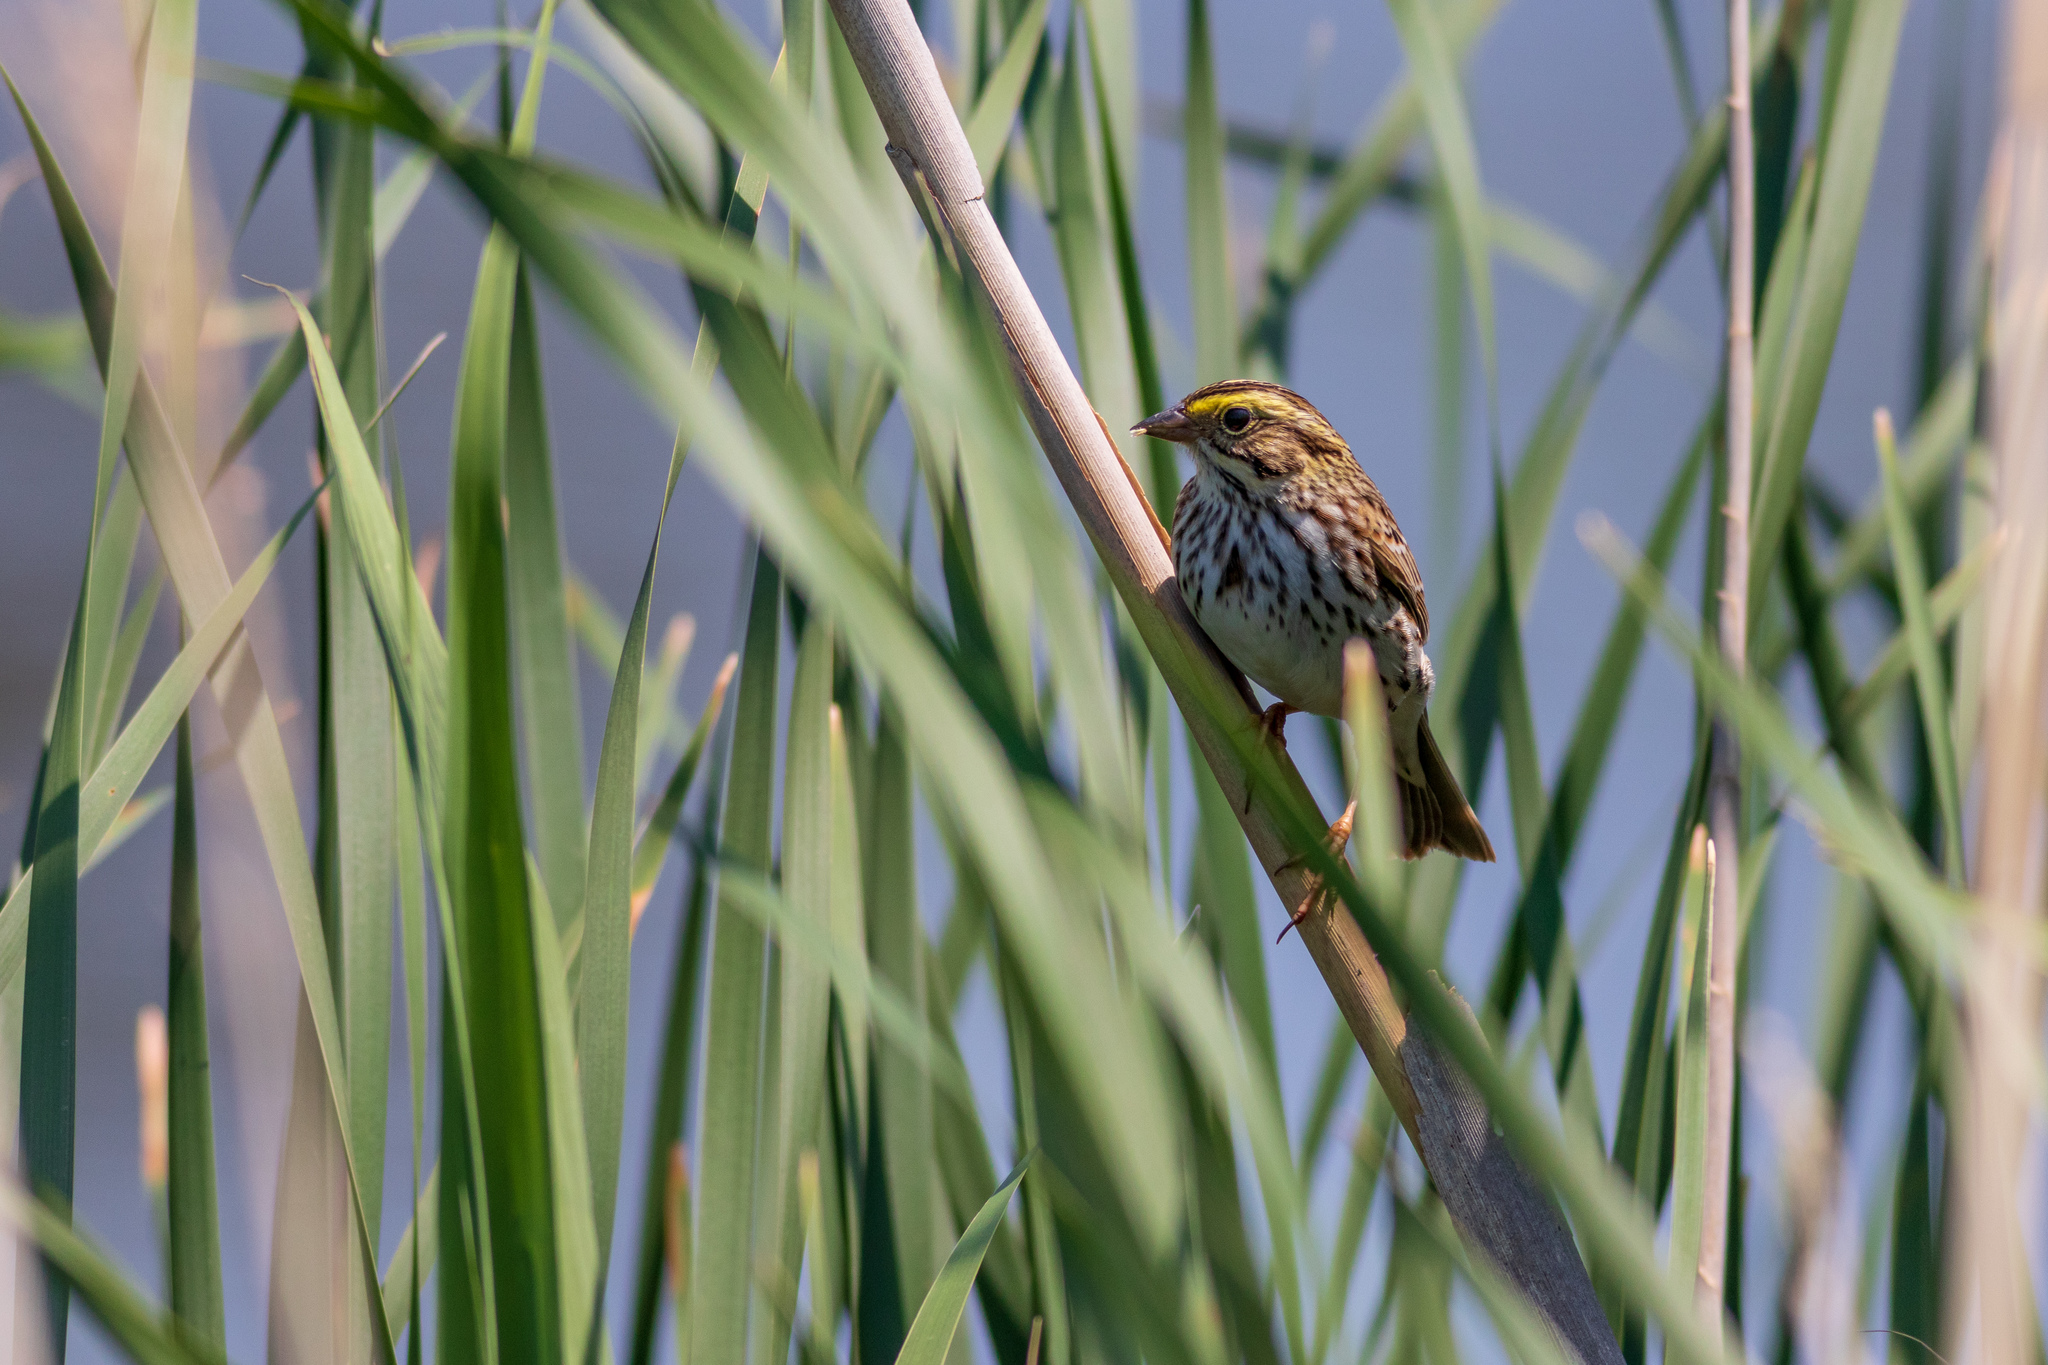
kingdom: Animalia
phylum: Chordata
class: Aves
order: Passeriformes
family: Passerellidae
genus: Passerculus
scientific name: Passerculus sandwichensis
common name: Savannah sparrow
